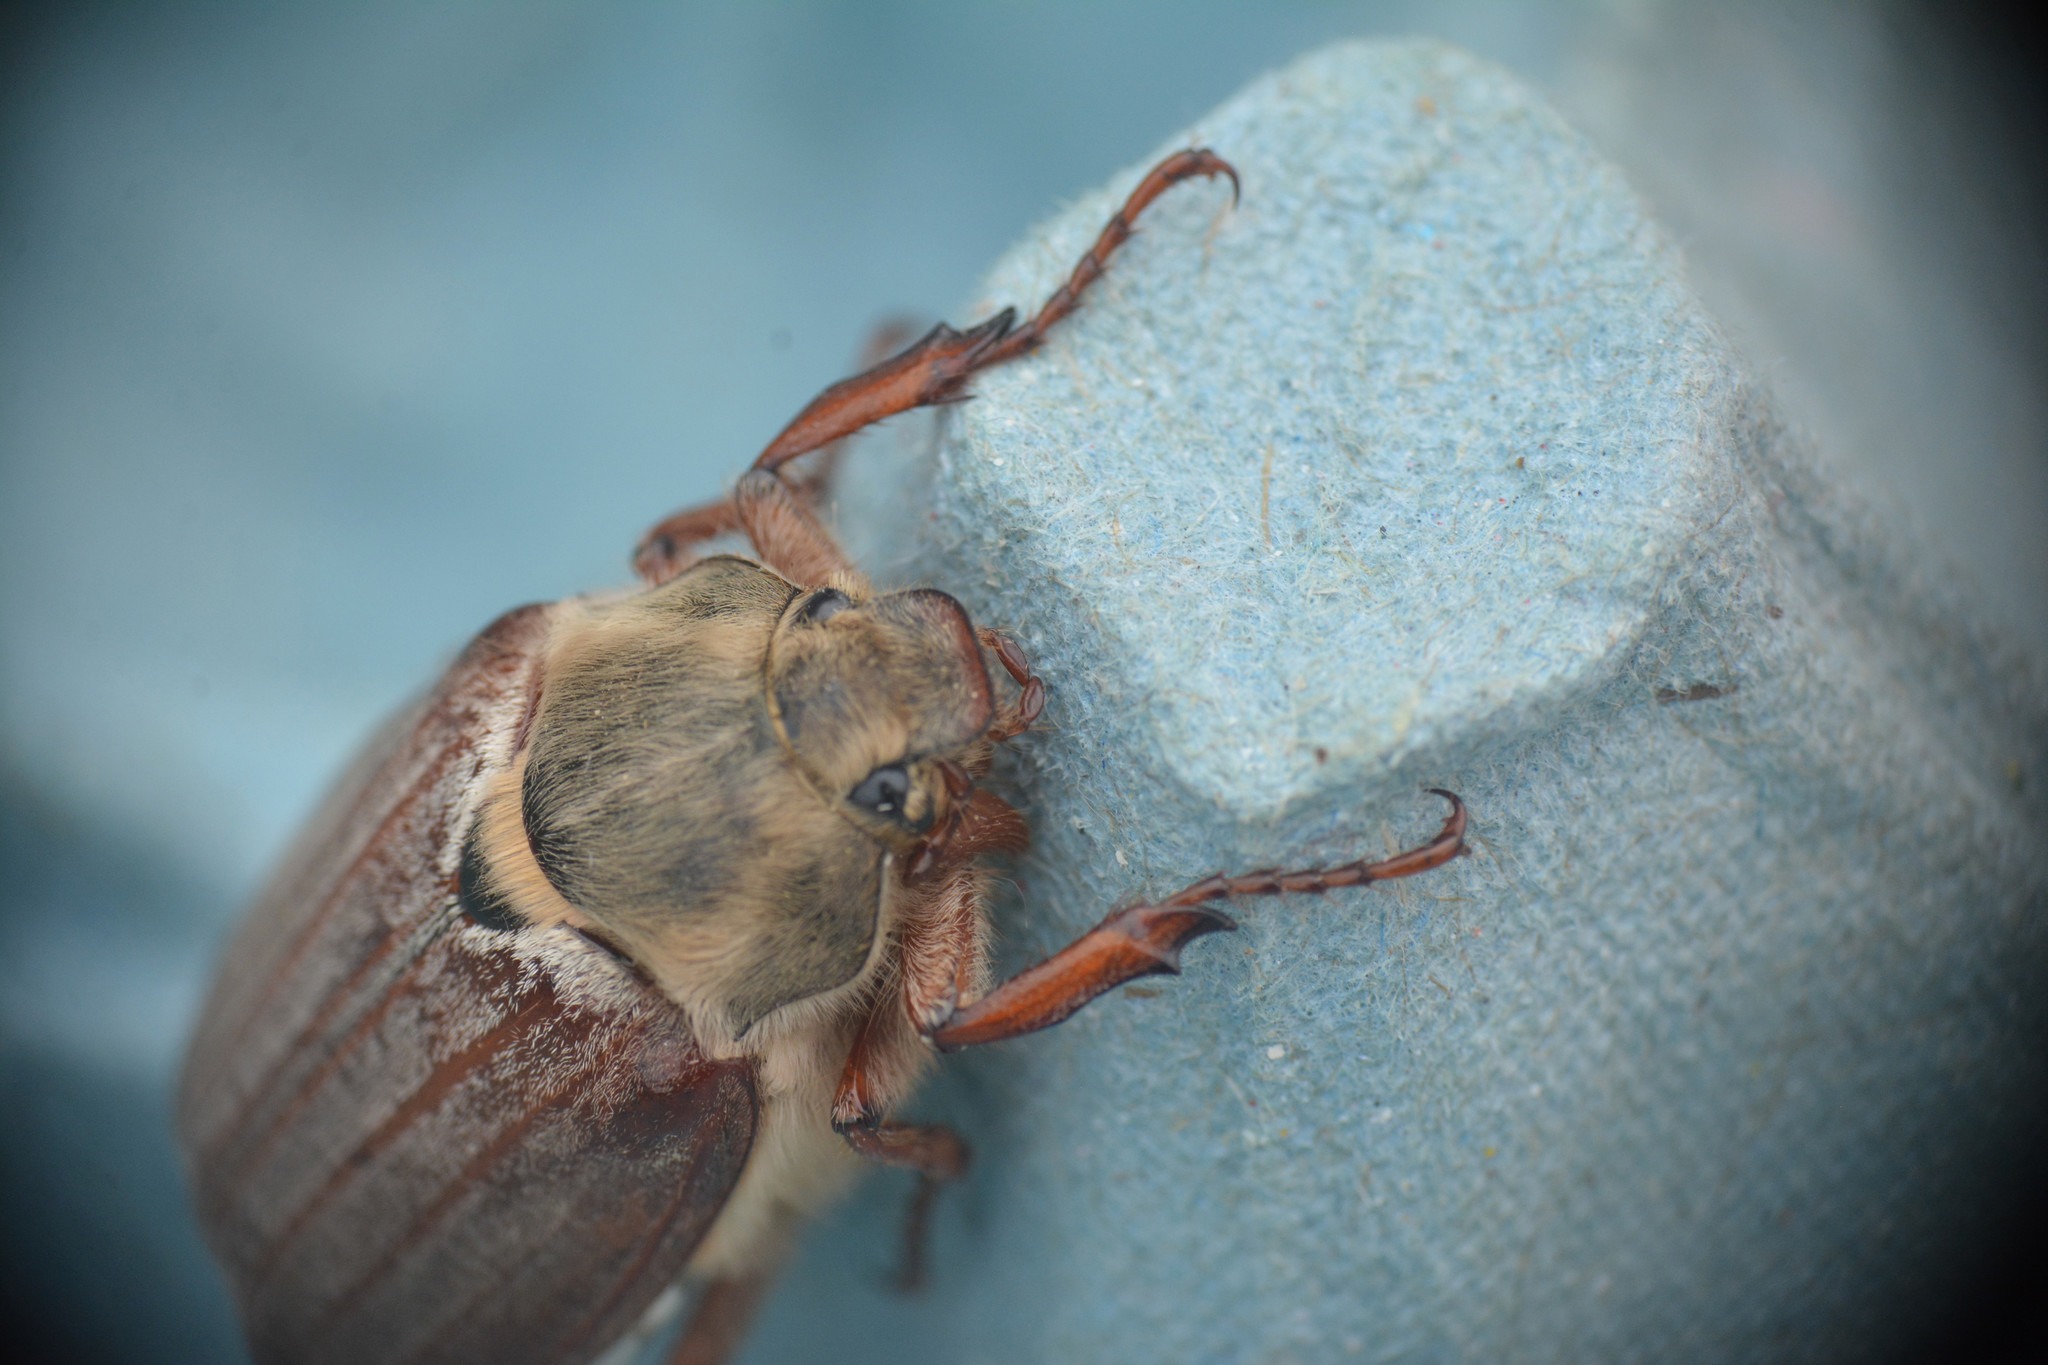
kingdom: Animalia
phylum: Arthropoda
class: Insecta
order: Coleoptera
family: Scarabaeidae
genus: Melolontha
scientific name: Melolontha
